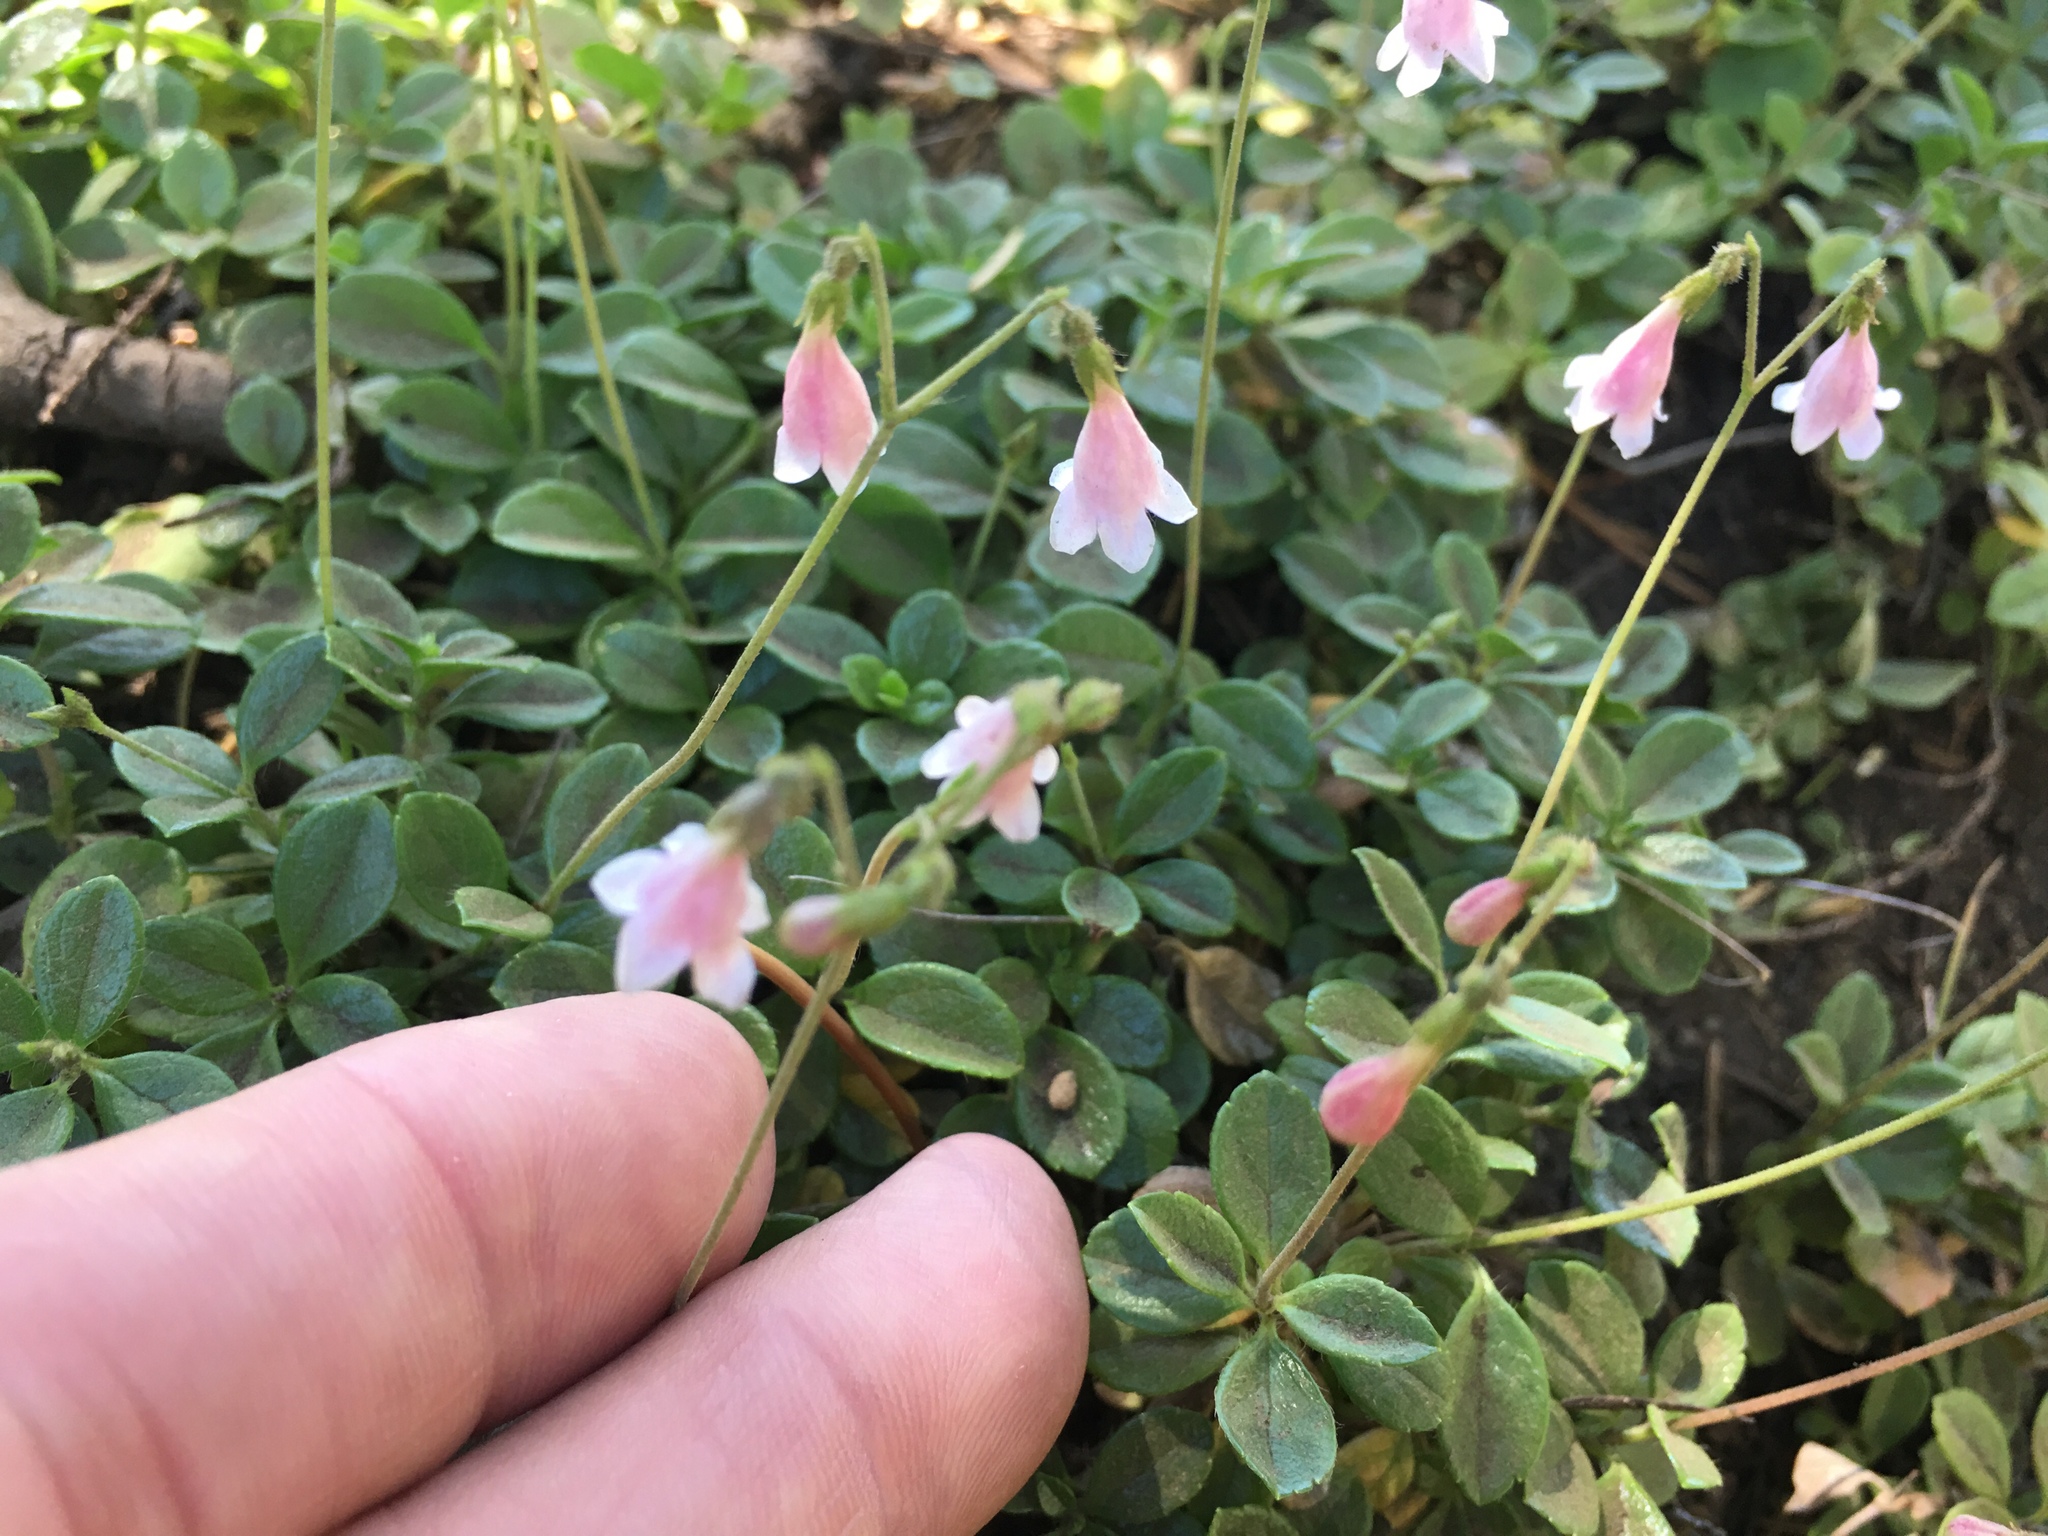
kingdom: Plantae
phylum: Tracheophyta
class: Magnoliopsida
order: Dipsacales
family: Caprifoliaceae
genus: Linnaea
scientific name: Linnaea borealis
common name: Twinflower
